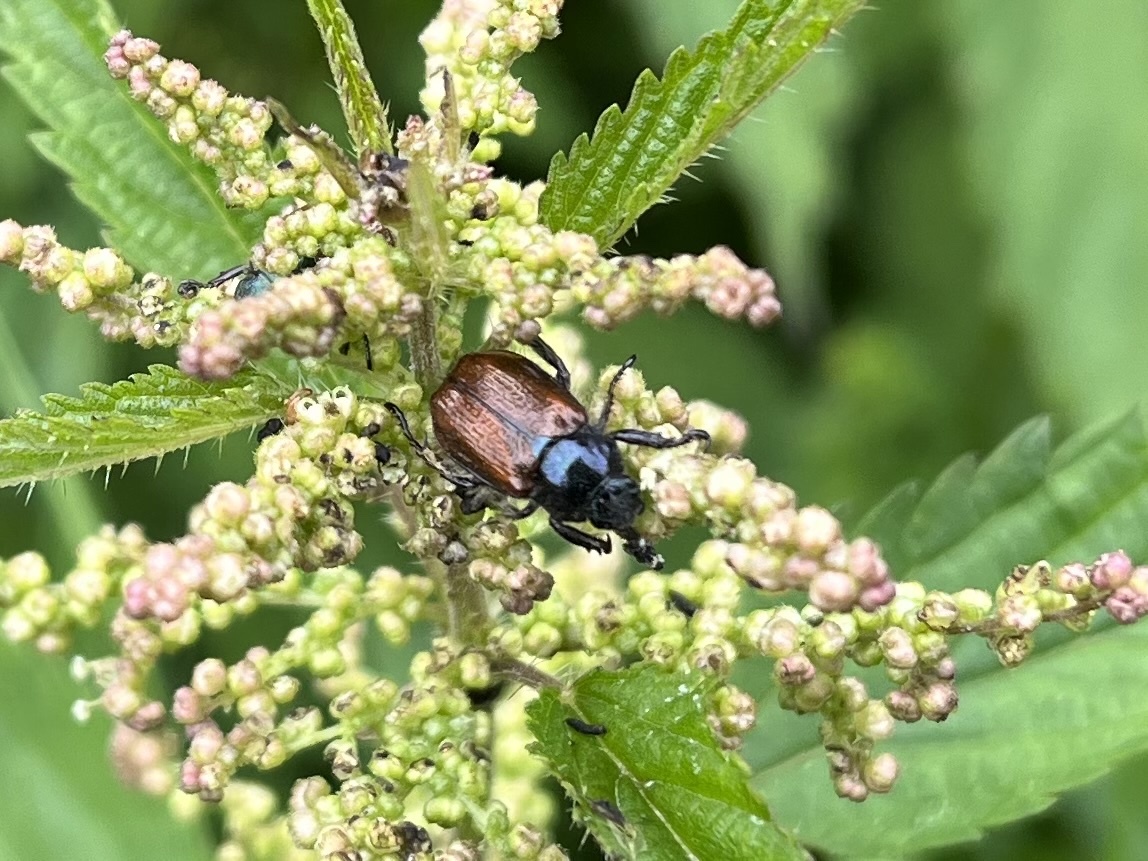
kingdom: Animalia
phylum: Arthropoda
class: Insecta
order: Coleoptera
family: Scarabaeidae
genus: Phyllopertha
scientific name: Phyllopertha horticola
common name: Garden chafer
